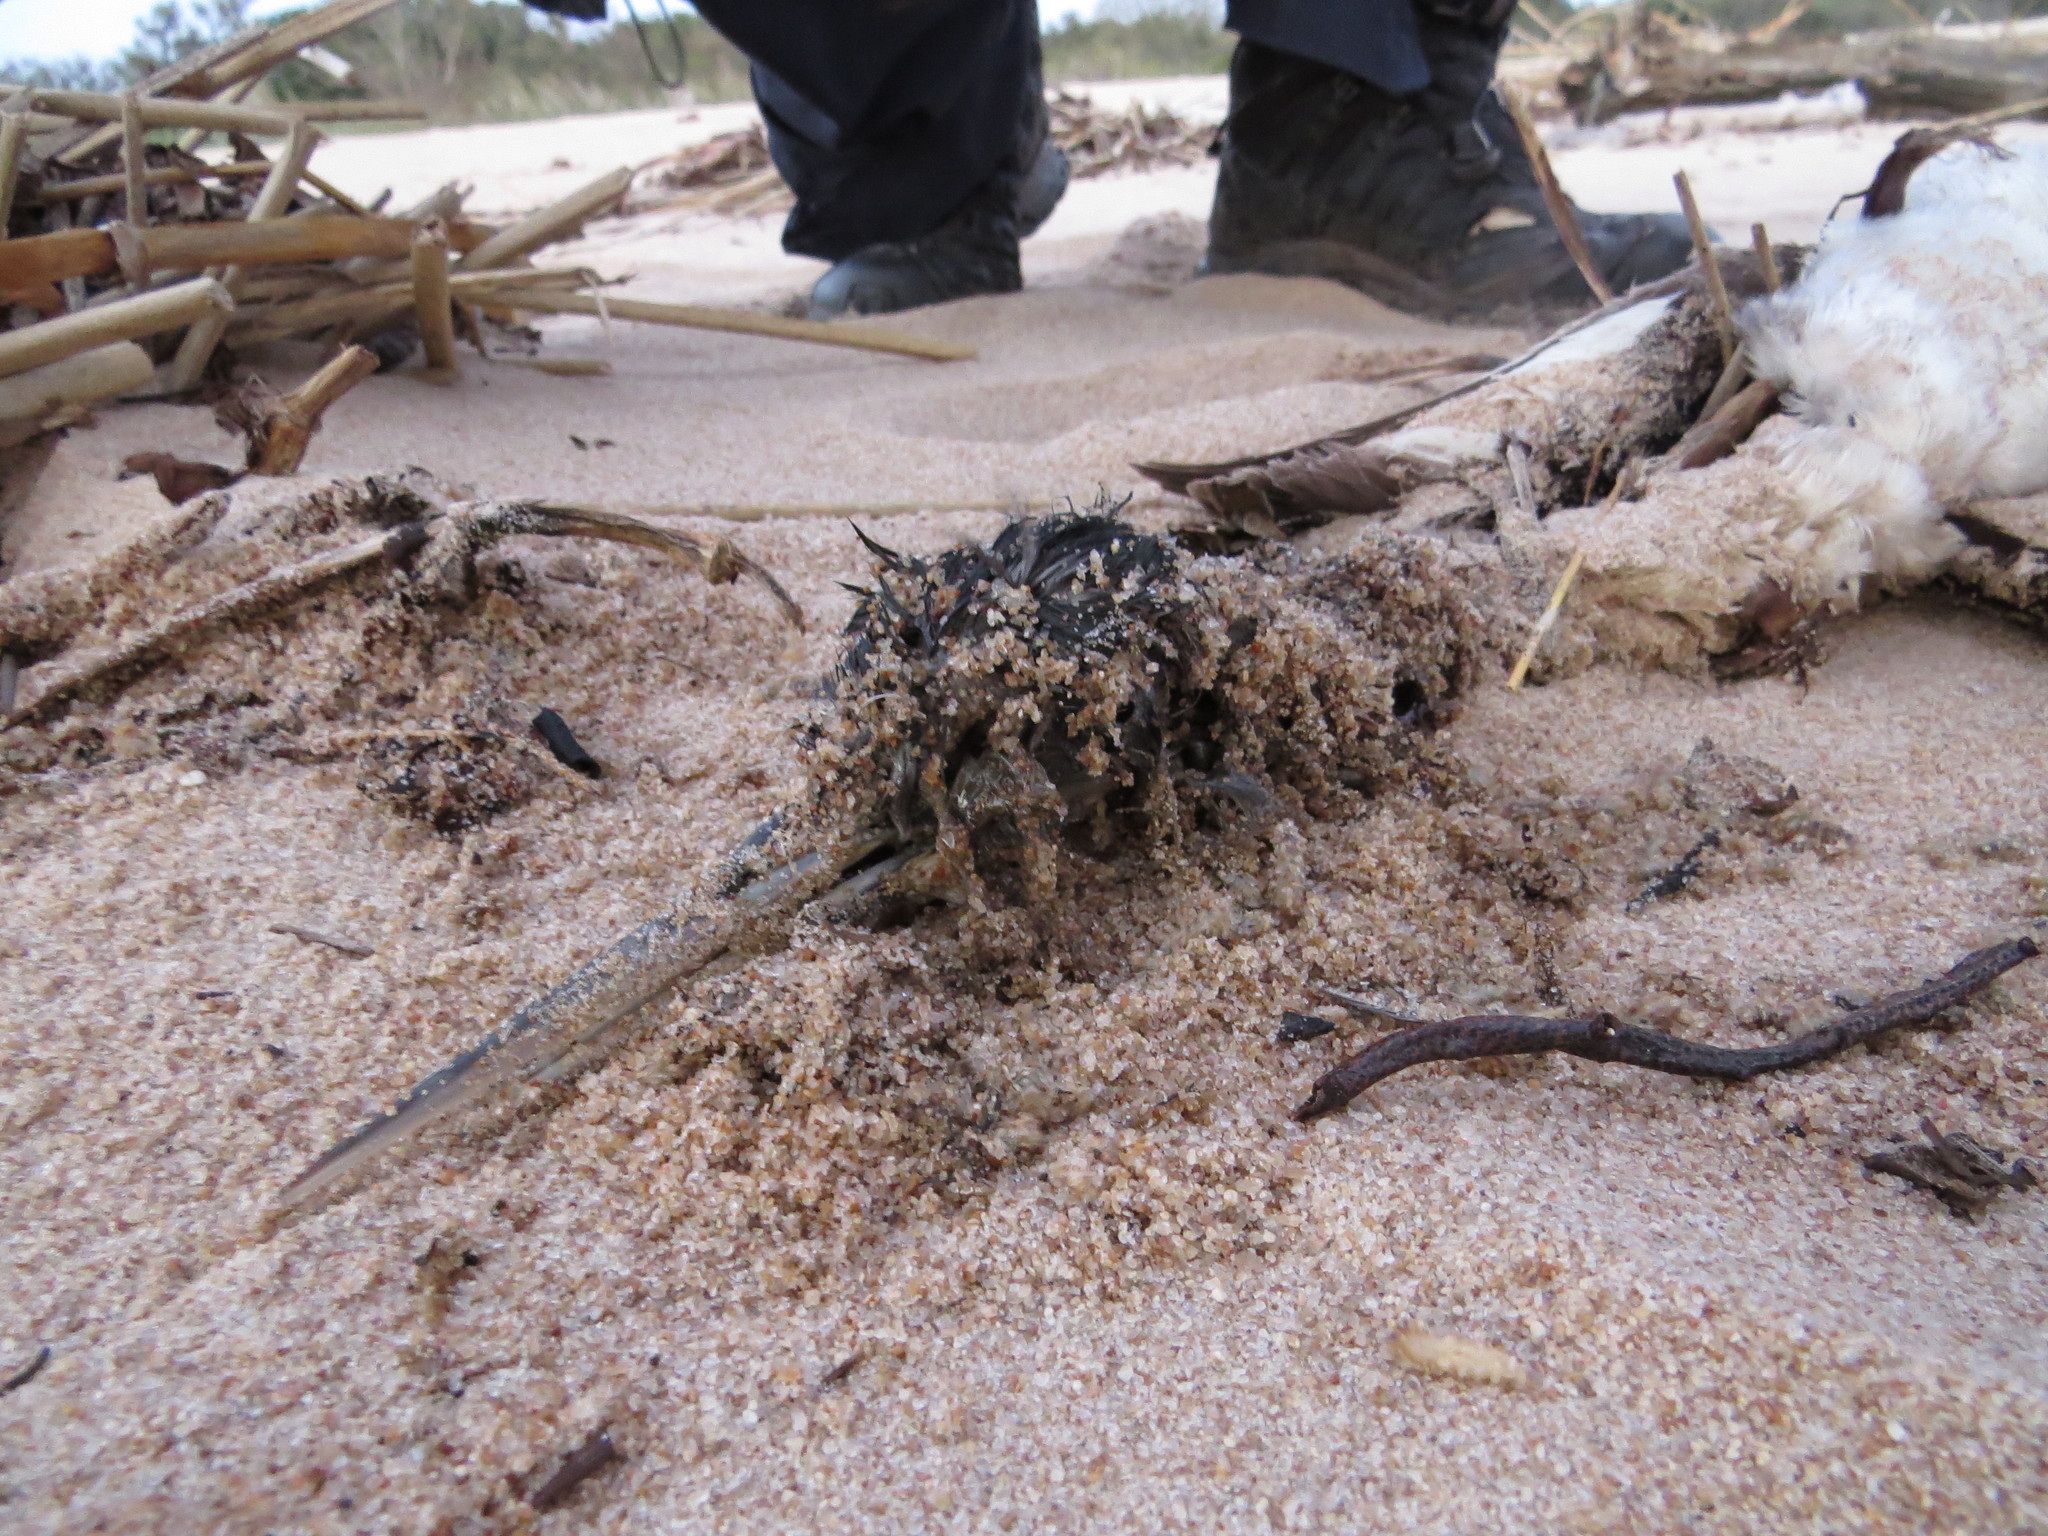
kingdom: Animalia
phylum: Chordata
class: Aves
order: Podicipediformes
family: Podicipedidae
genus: Podiceps
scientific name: Podiceps major
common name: Great grebe
